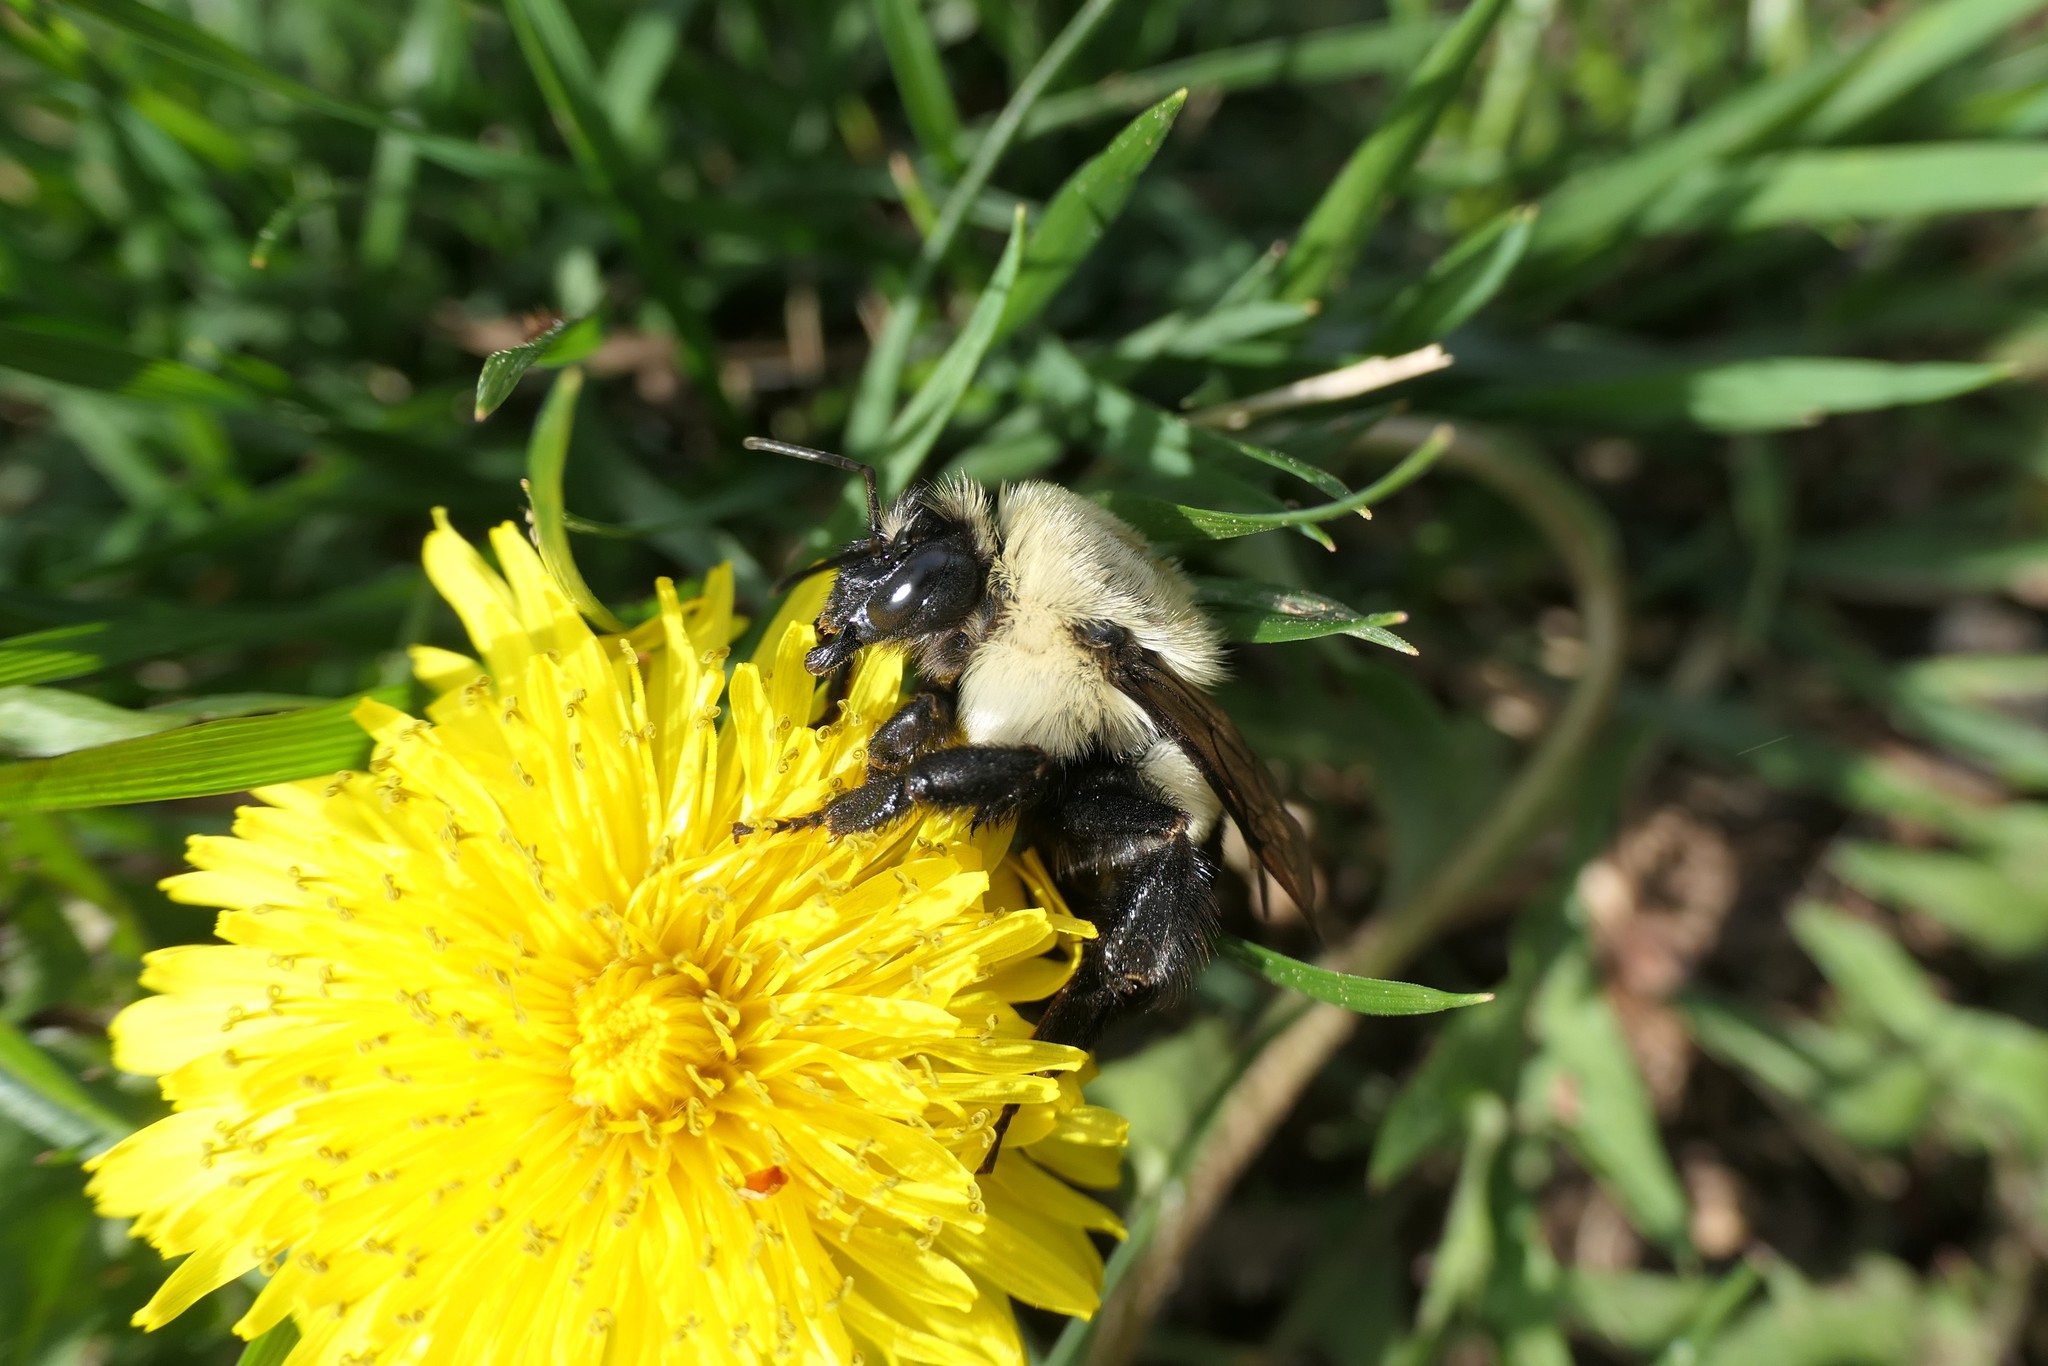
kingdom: Animalia
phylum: Arthropoda
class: Insecta
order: Hymenoptera
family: Apidae
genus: Bombus
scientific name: Bombus impatiens
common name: Common eastern bumble bee
